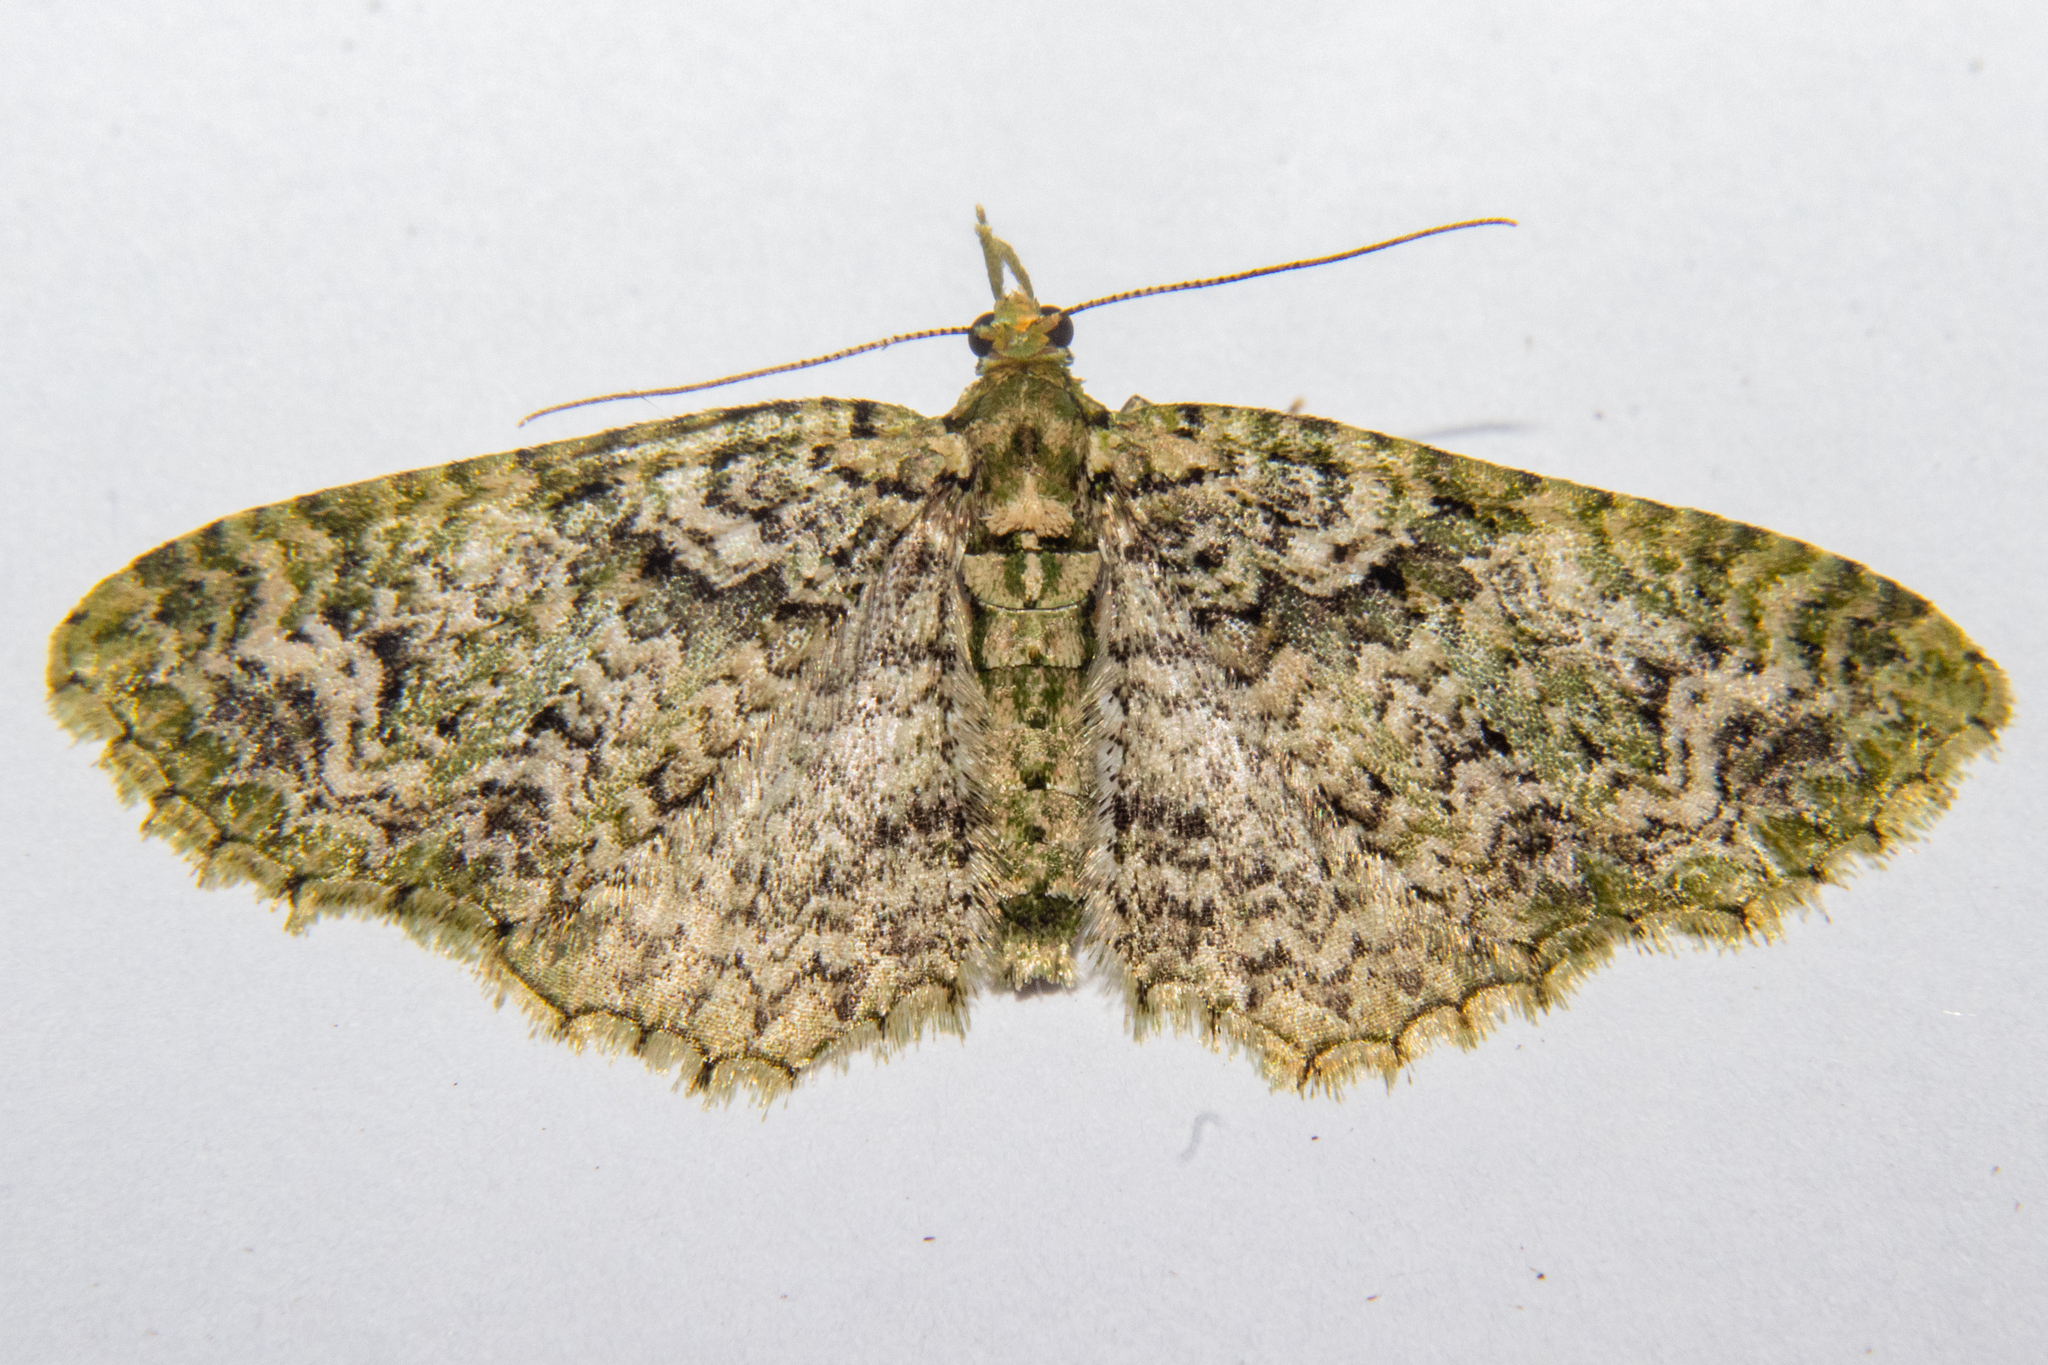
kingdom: Animalia
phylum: Arthropoda
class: Insecta
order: Lepidoptera
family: Geometridae
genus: Pasiphila
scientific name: Pasiphila muscosata
